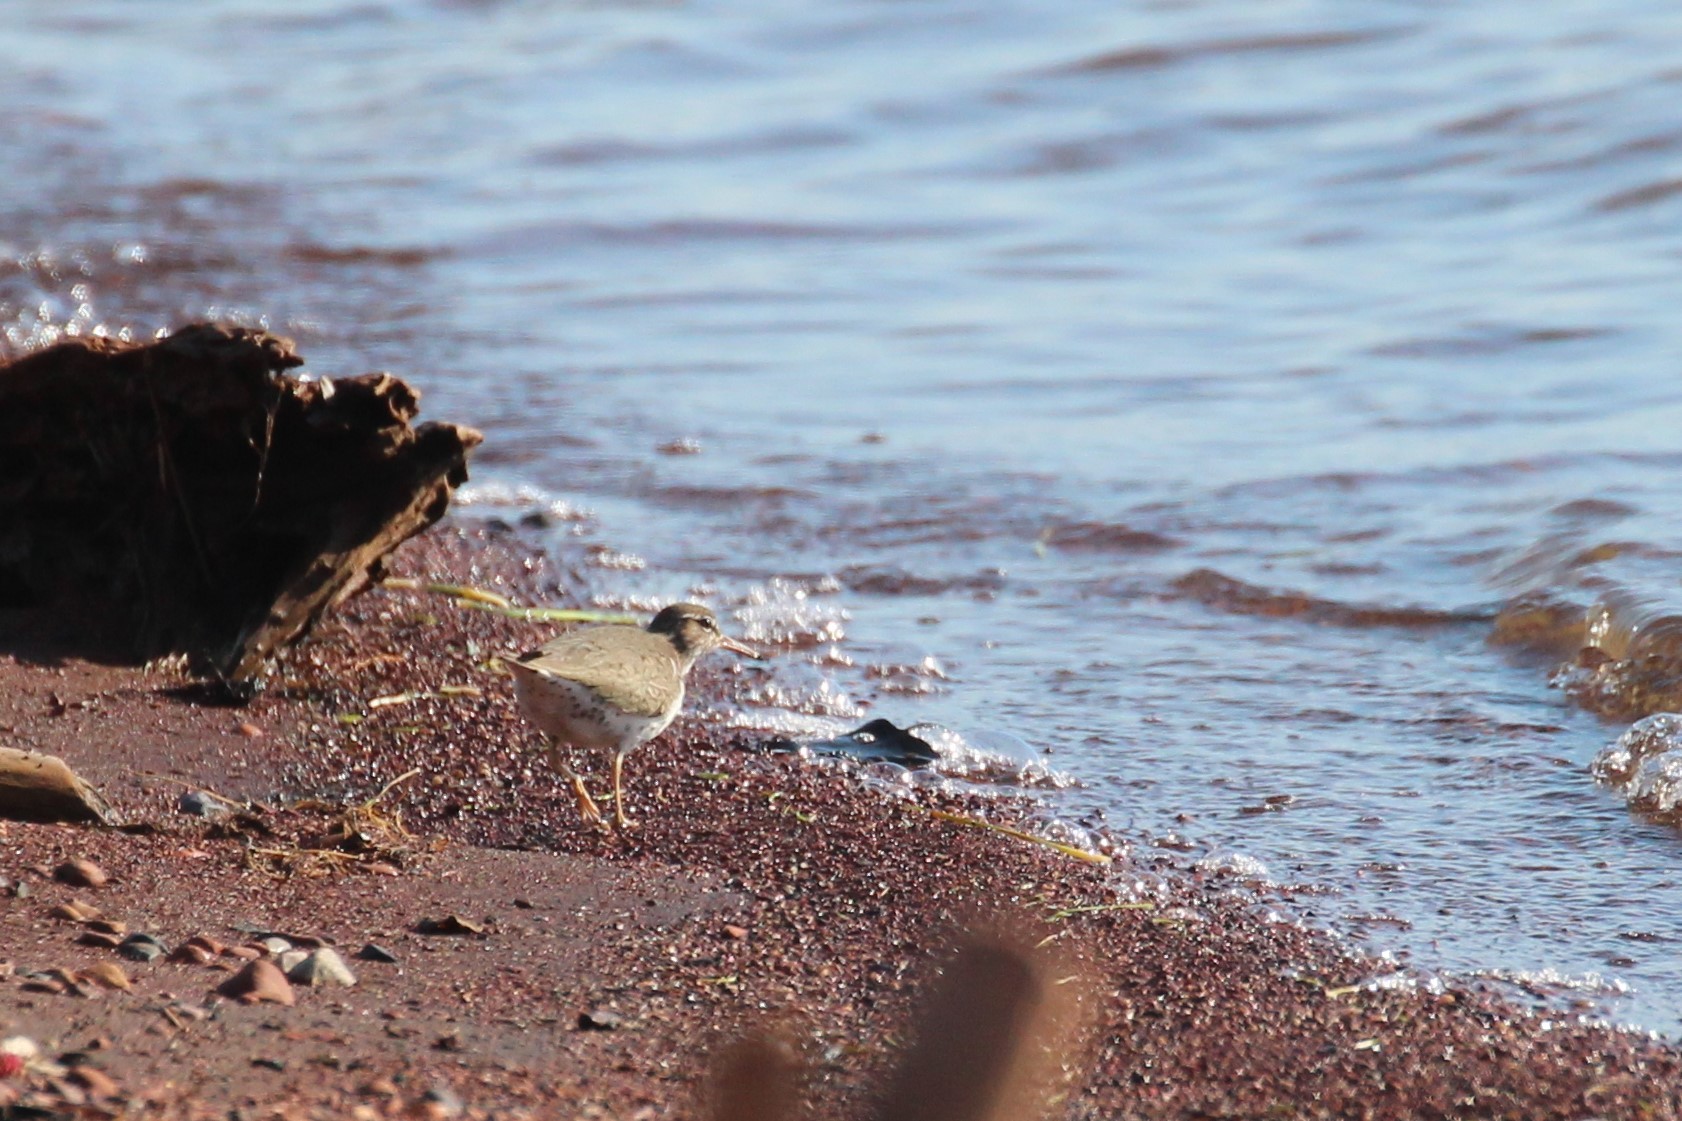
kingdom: Animalia
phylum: Chordata
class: Aves
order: Charadriiformes
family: Scolopacidae
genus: Actitis
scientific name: Actitis macularius
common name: Spotted sandpiper
